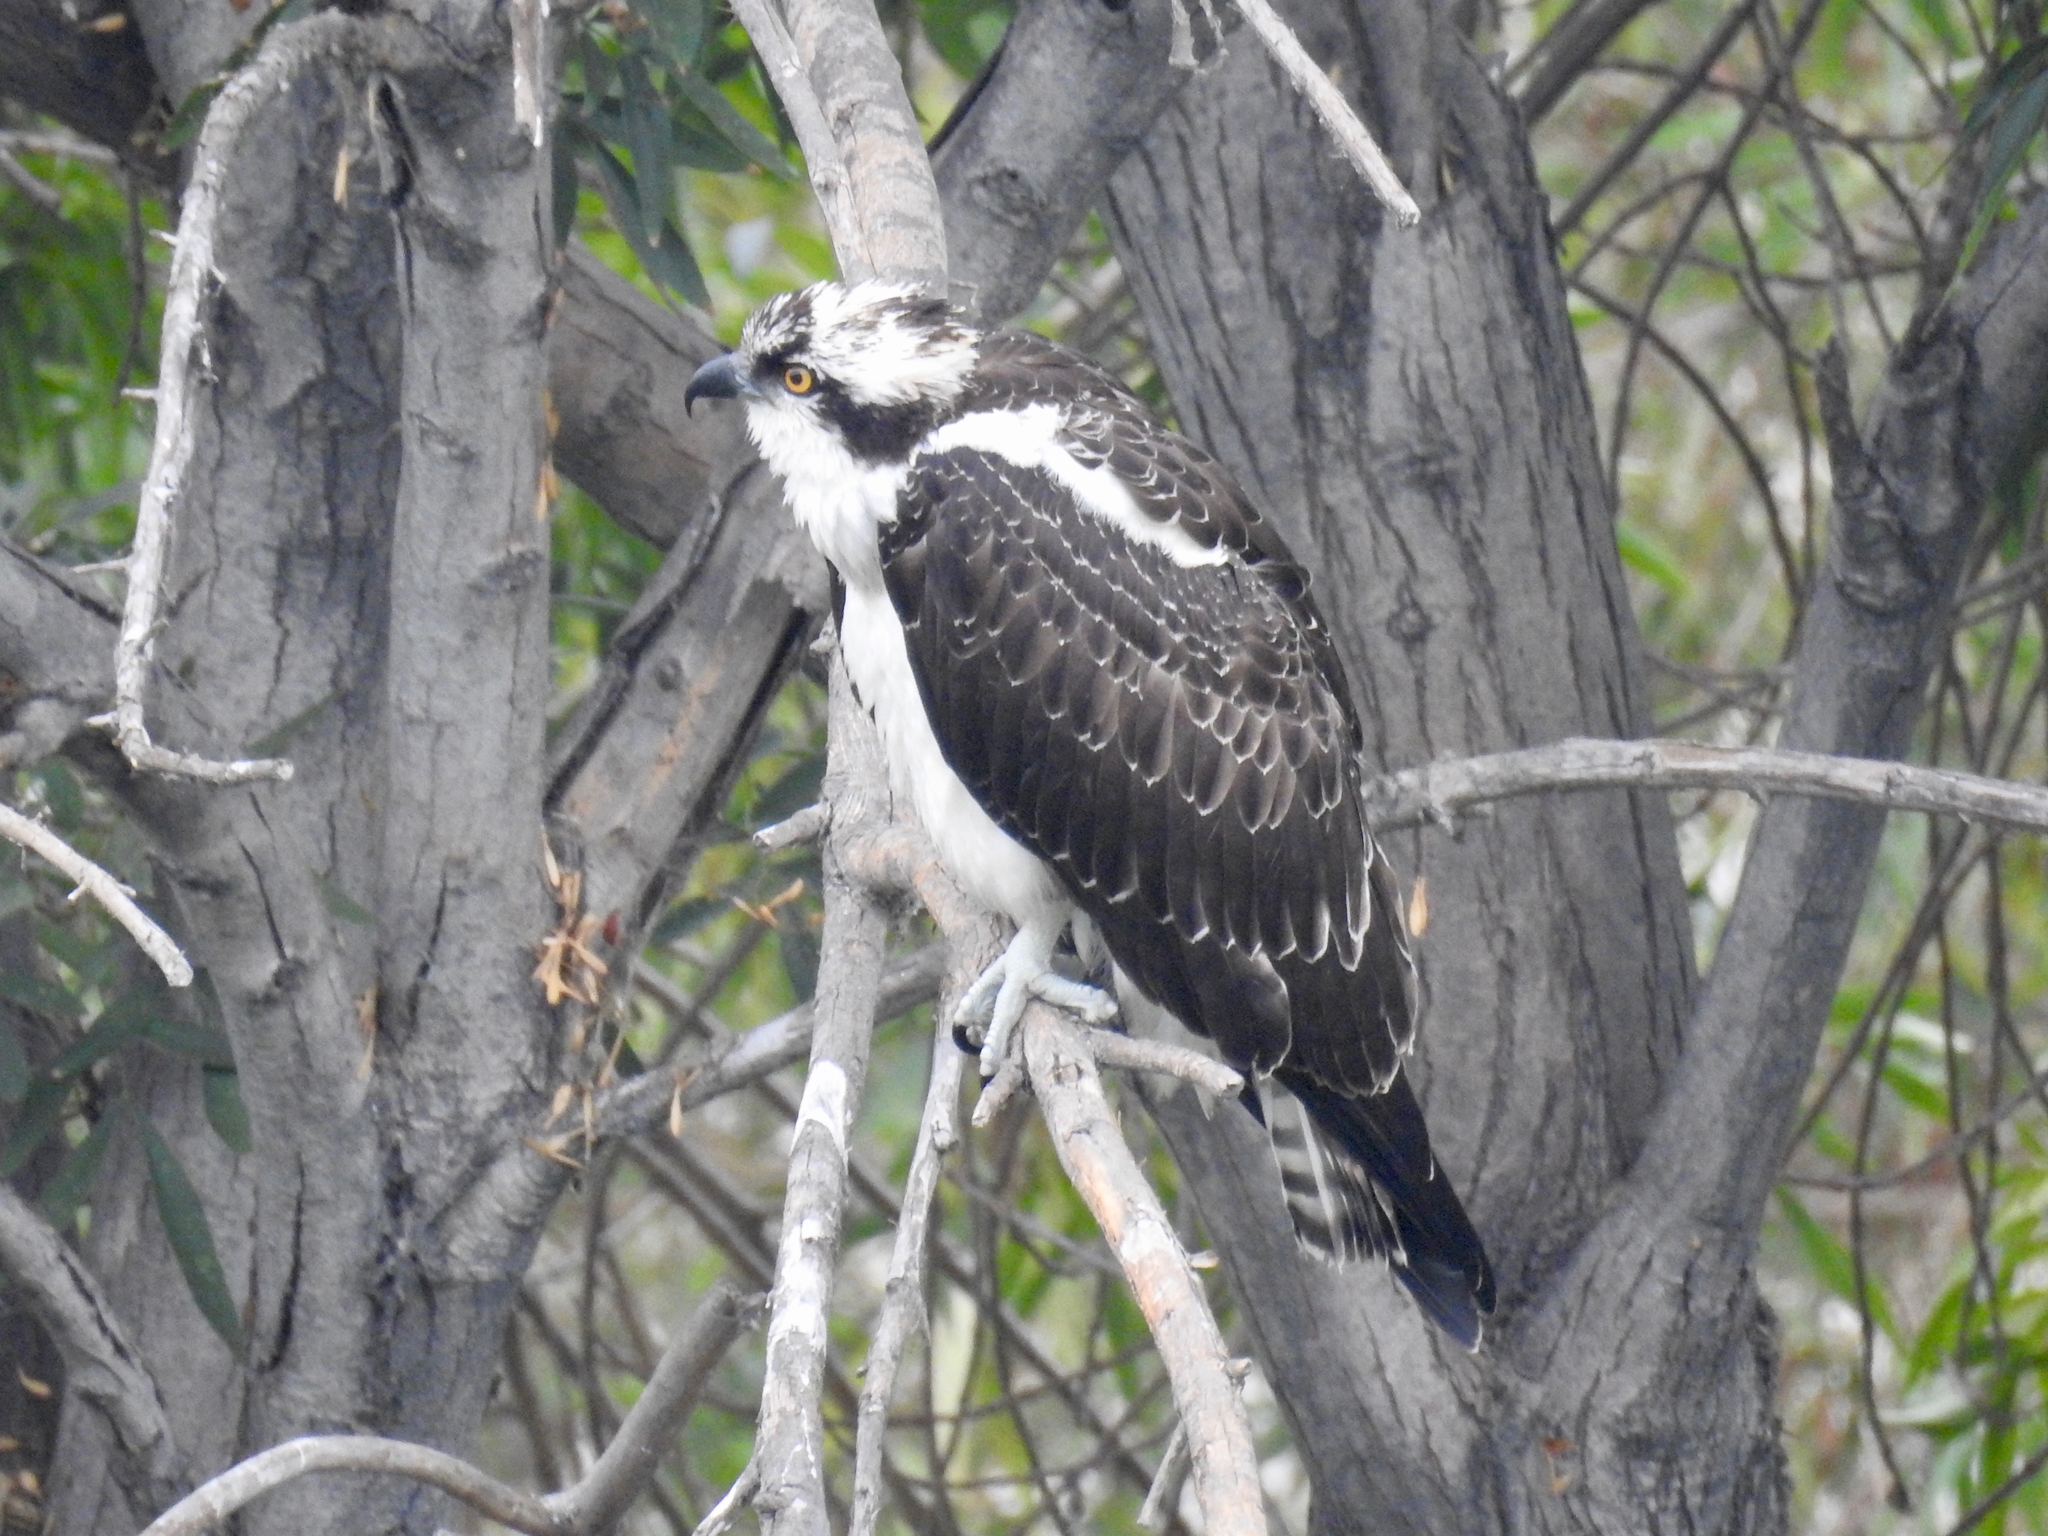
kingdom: Animalia
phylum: Chordata
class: Aves
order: Accipitriformes
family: Pandionidae
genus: Pandion
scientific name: Pandion haliaetus
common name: Osprey
